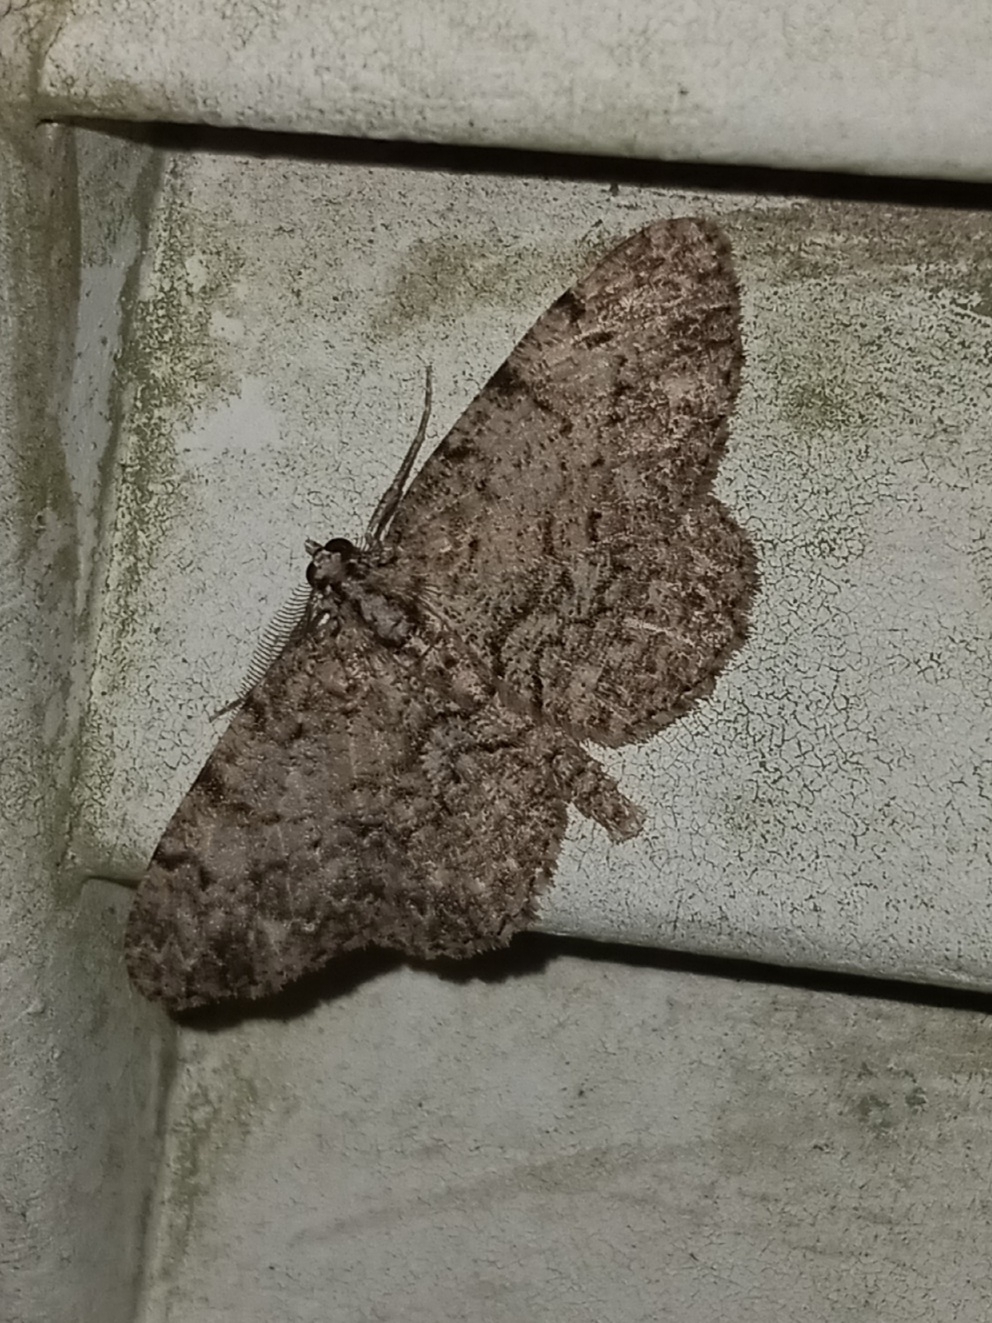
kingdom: Animalia
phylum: Arthropoda
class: Insecta
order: Lepidoptera
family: Geometridae
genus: Protoboarmia
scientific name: Protoboarmia porcelaria
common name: Porcelain gray
